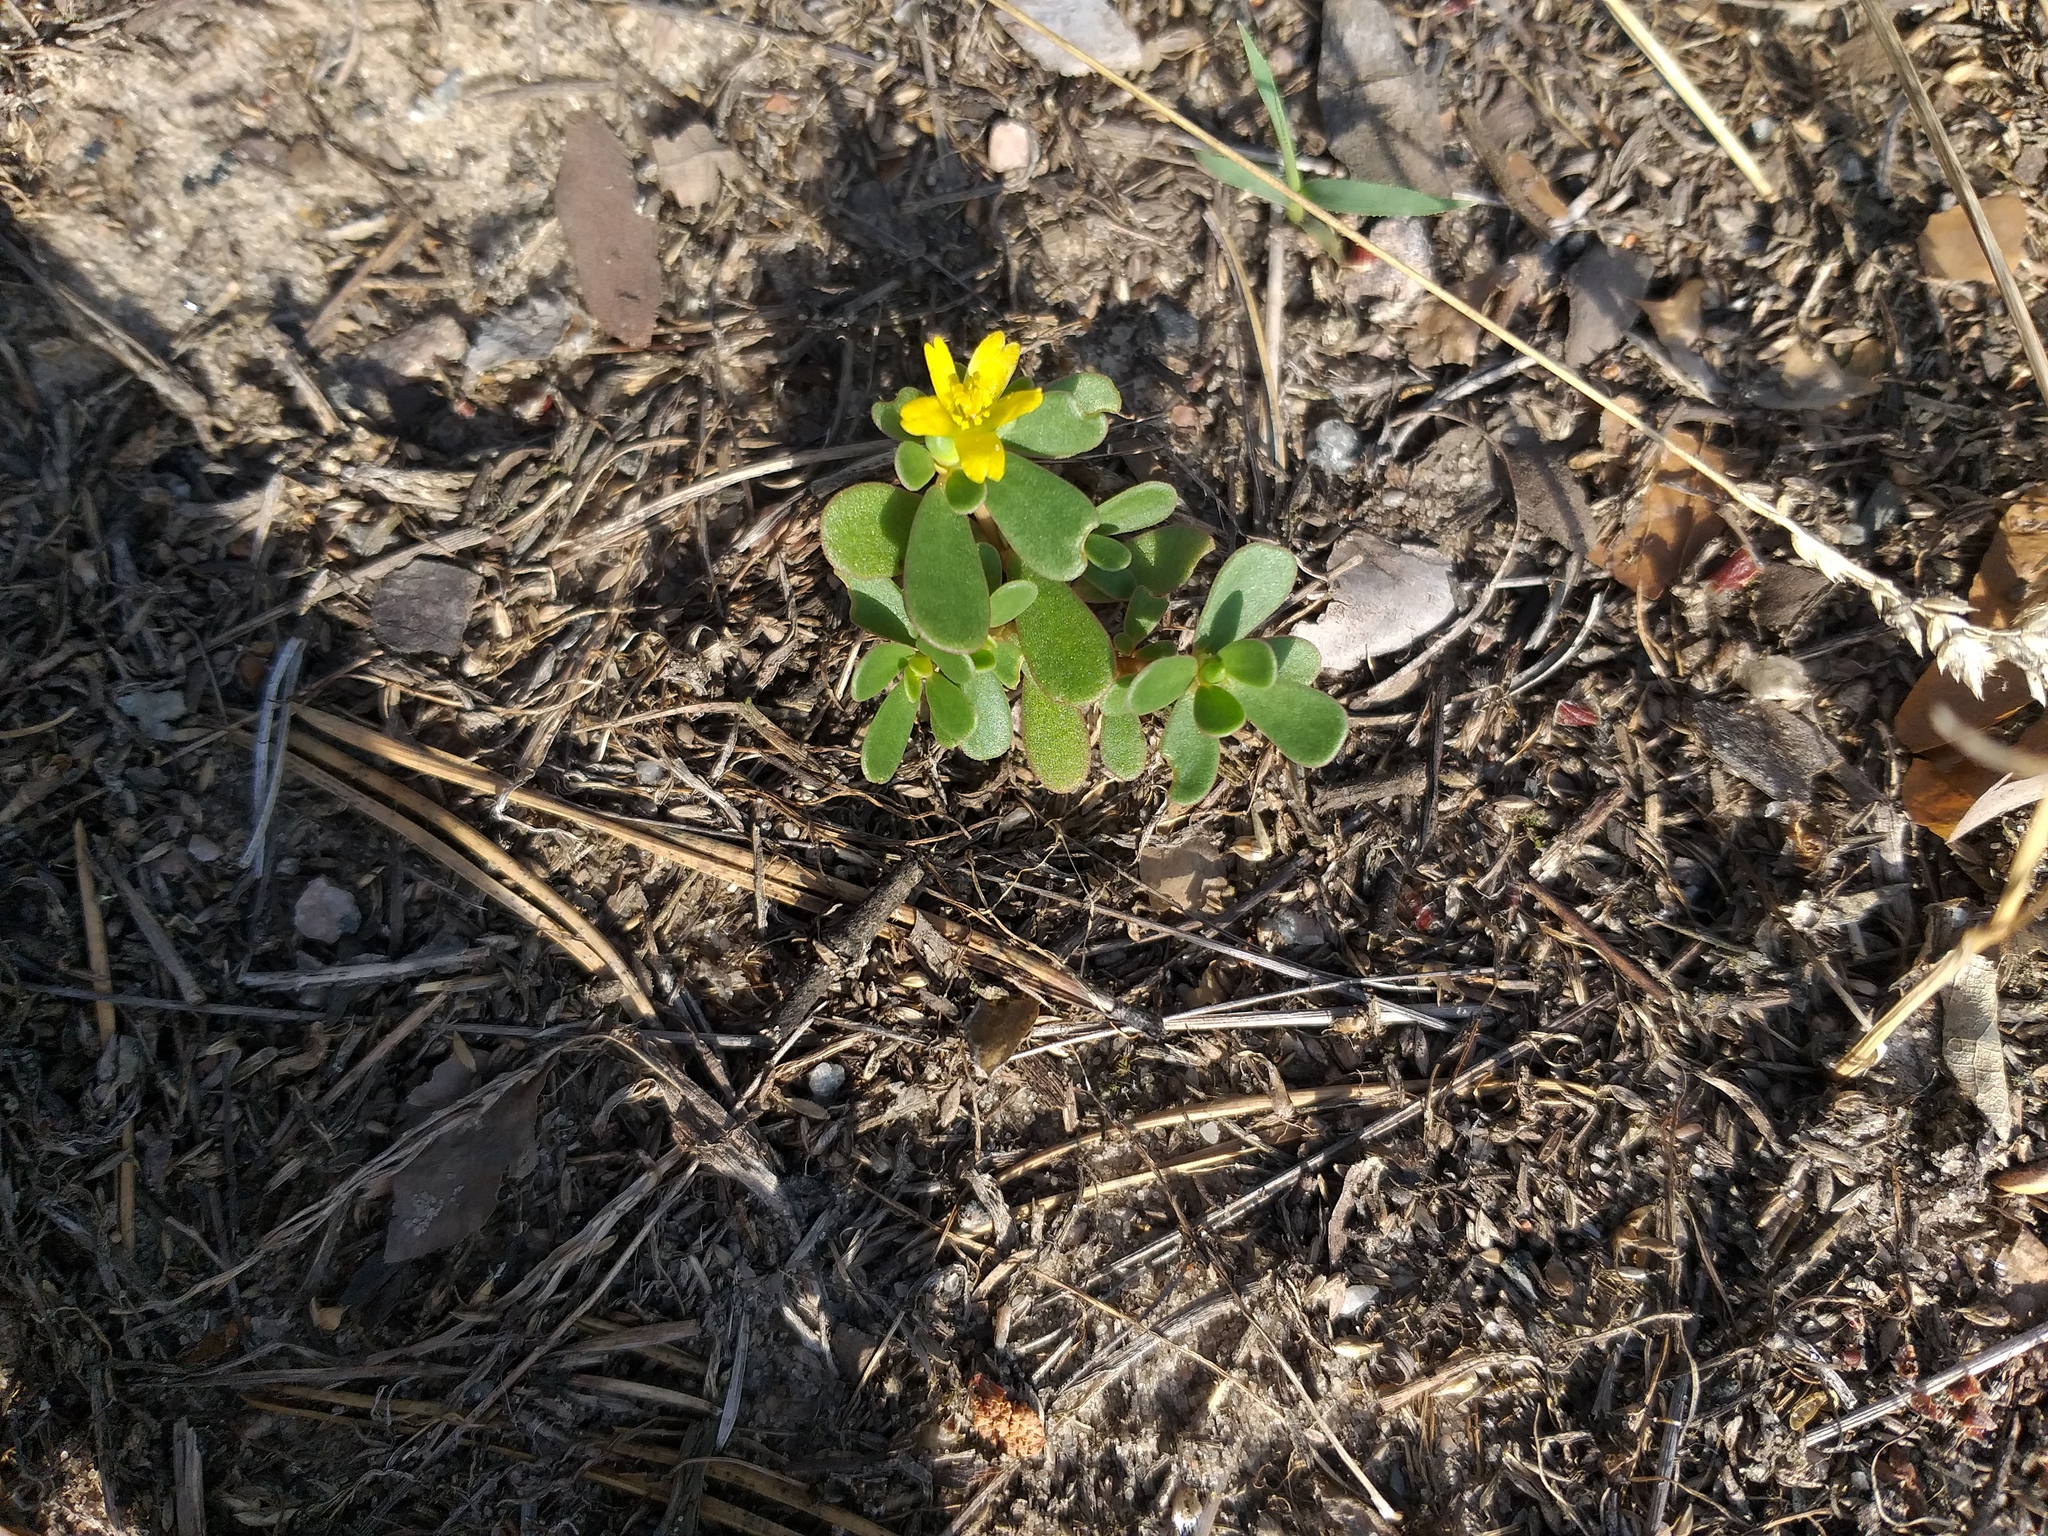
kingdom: Plantae
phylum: Tracheophyta
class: Magnoliopsida
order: Caryophyllales
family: Portulacaceae
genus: Portulaca
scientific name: Portulaca oleracea
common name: Common purslane
